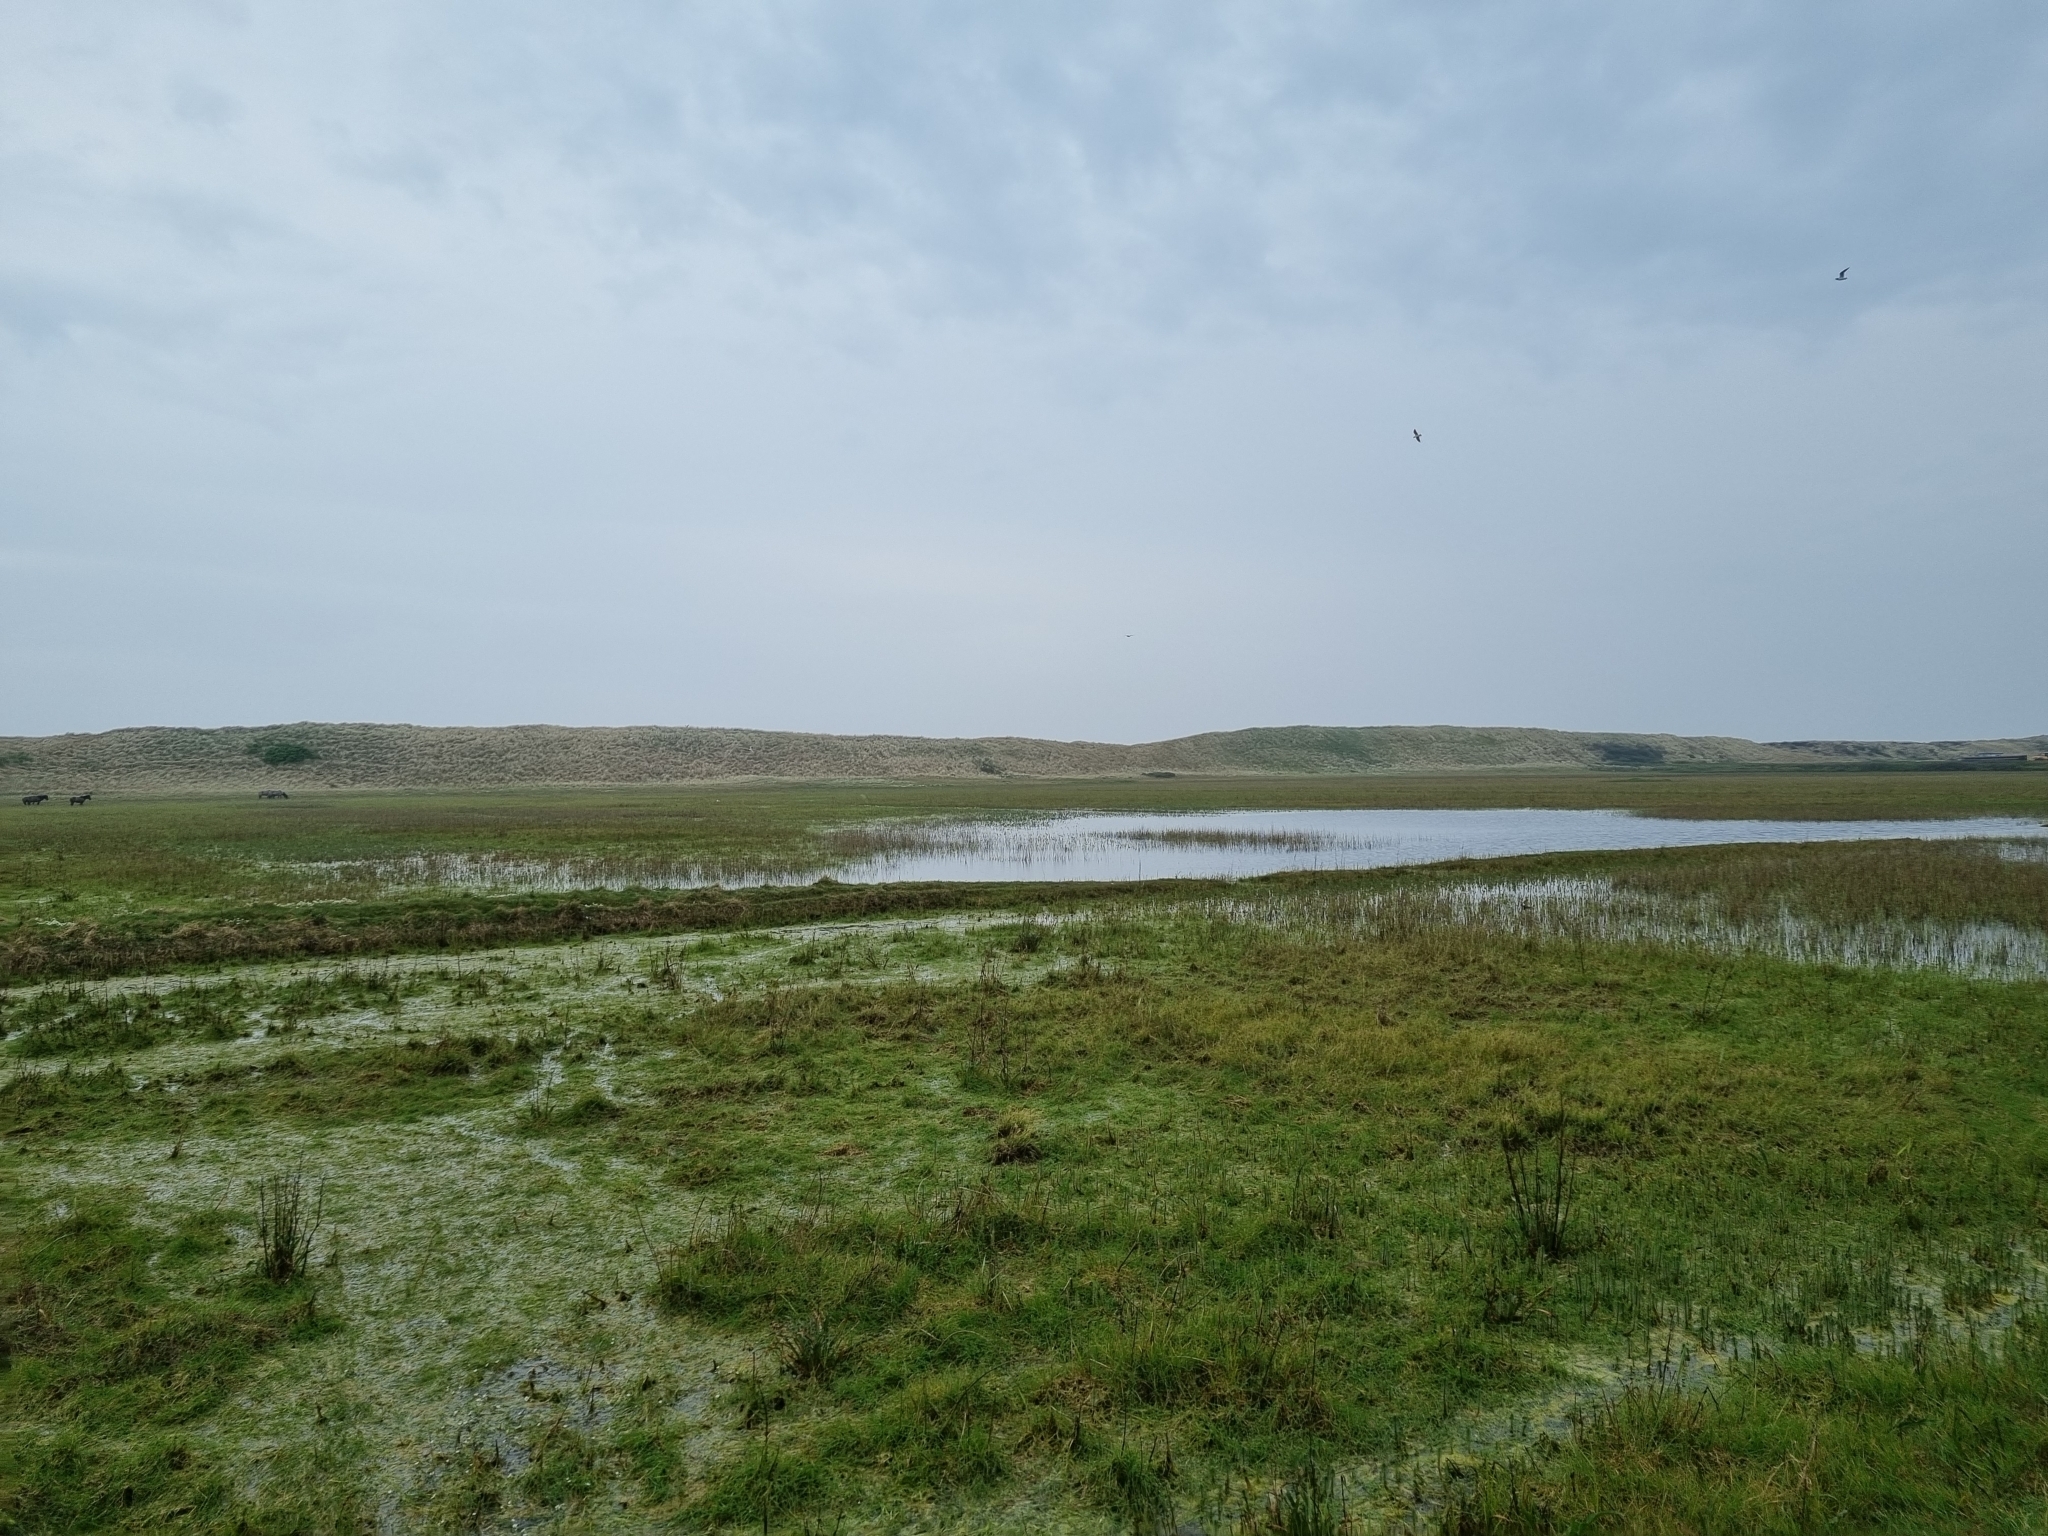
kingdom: Animalia
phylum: Chordata
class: Amphibia
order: Anura
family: Bufonidae
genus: Epidalea
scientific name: Epidalea calamita
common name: Natterjack toad
